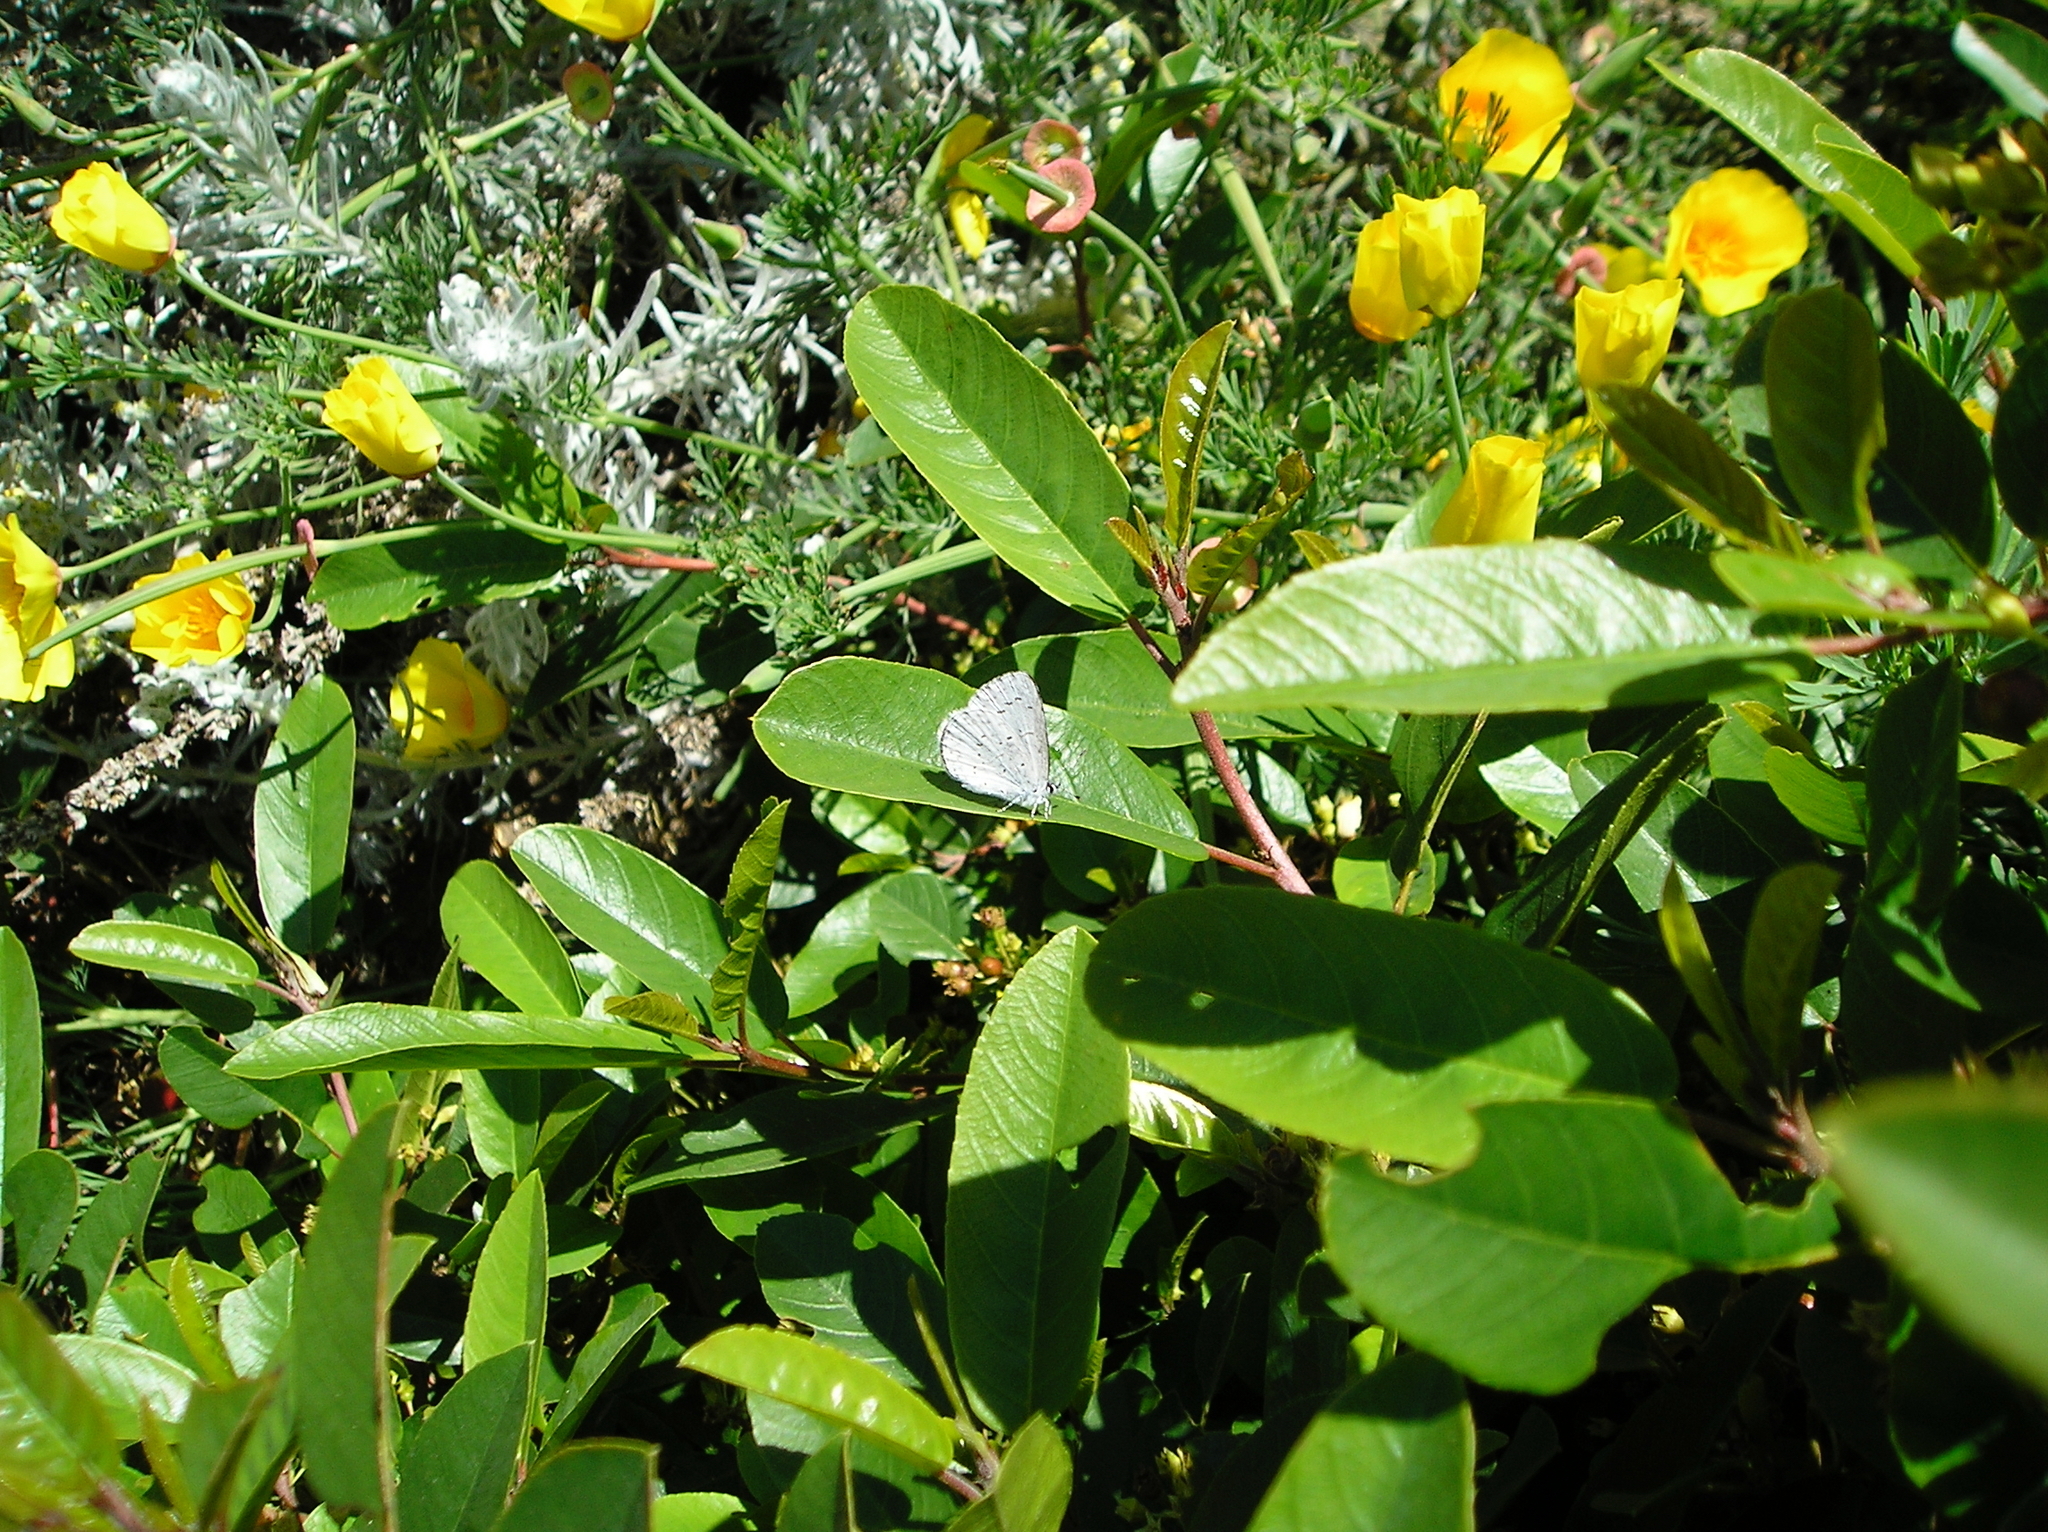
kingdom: Animalia
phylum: Arthropoda
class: Insecta
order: Lepidoptera
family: Lycaenidae
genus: Celastrina
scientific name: Celastrina ladon
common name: Spring azure
